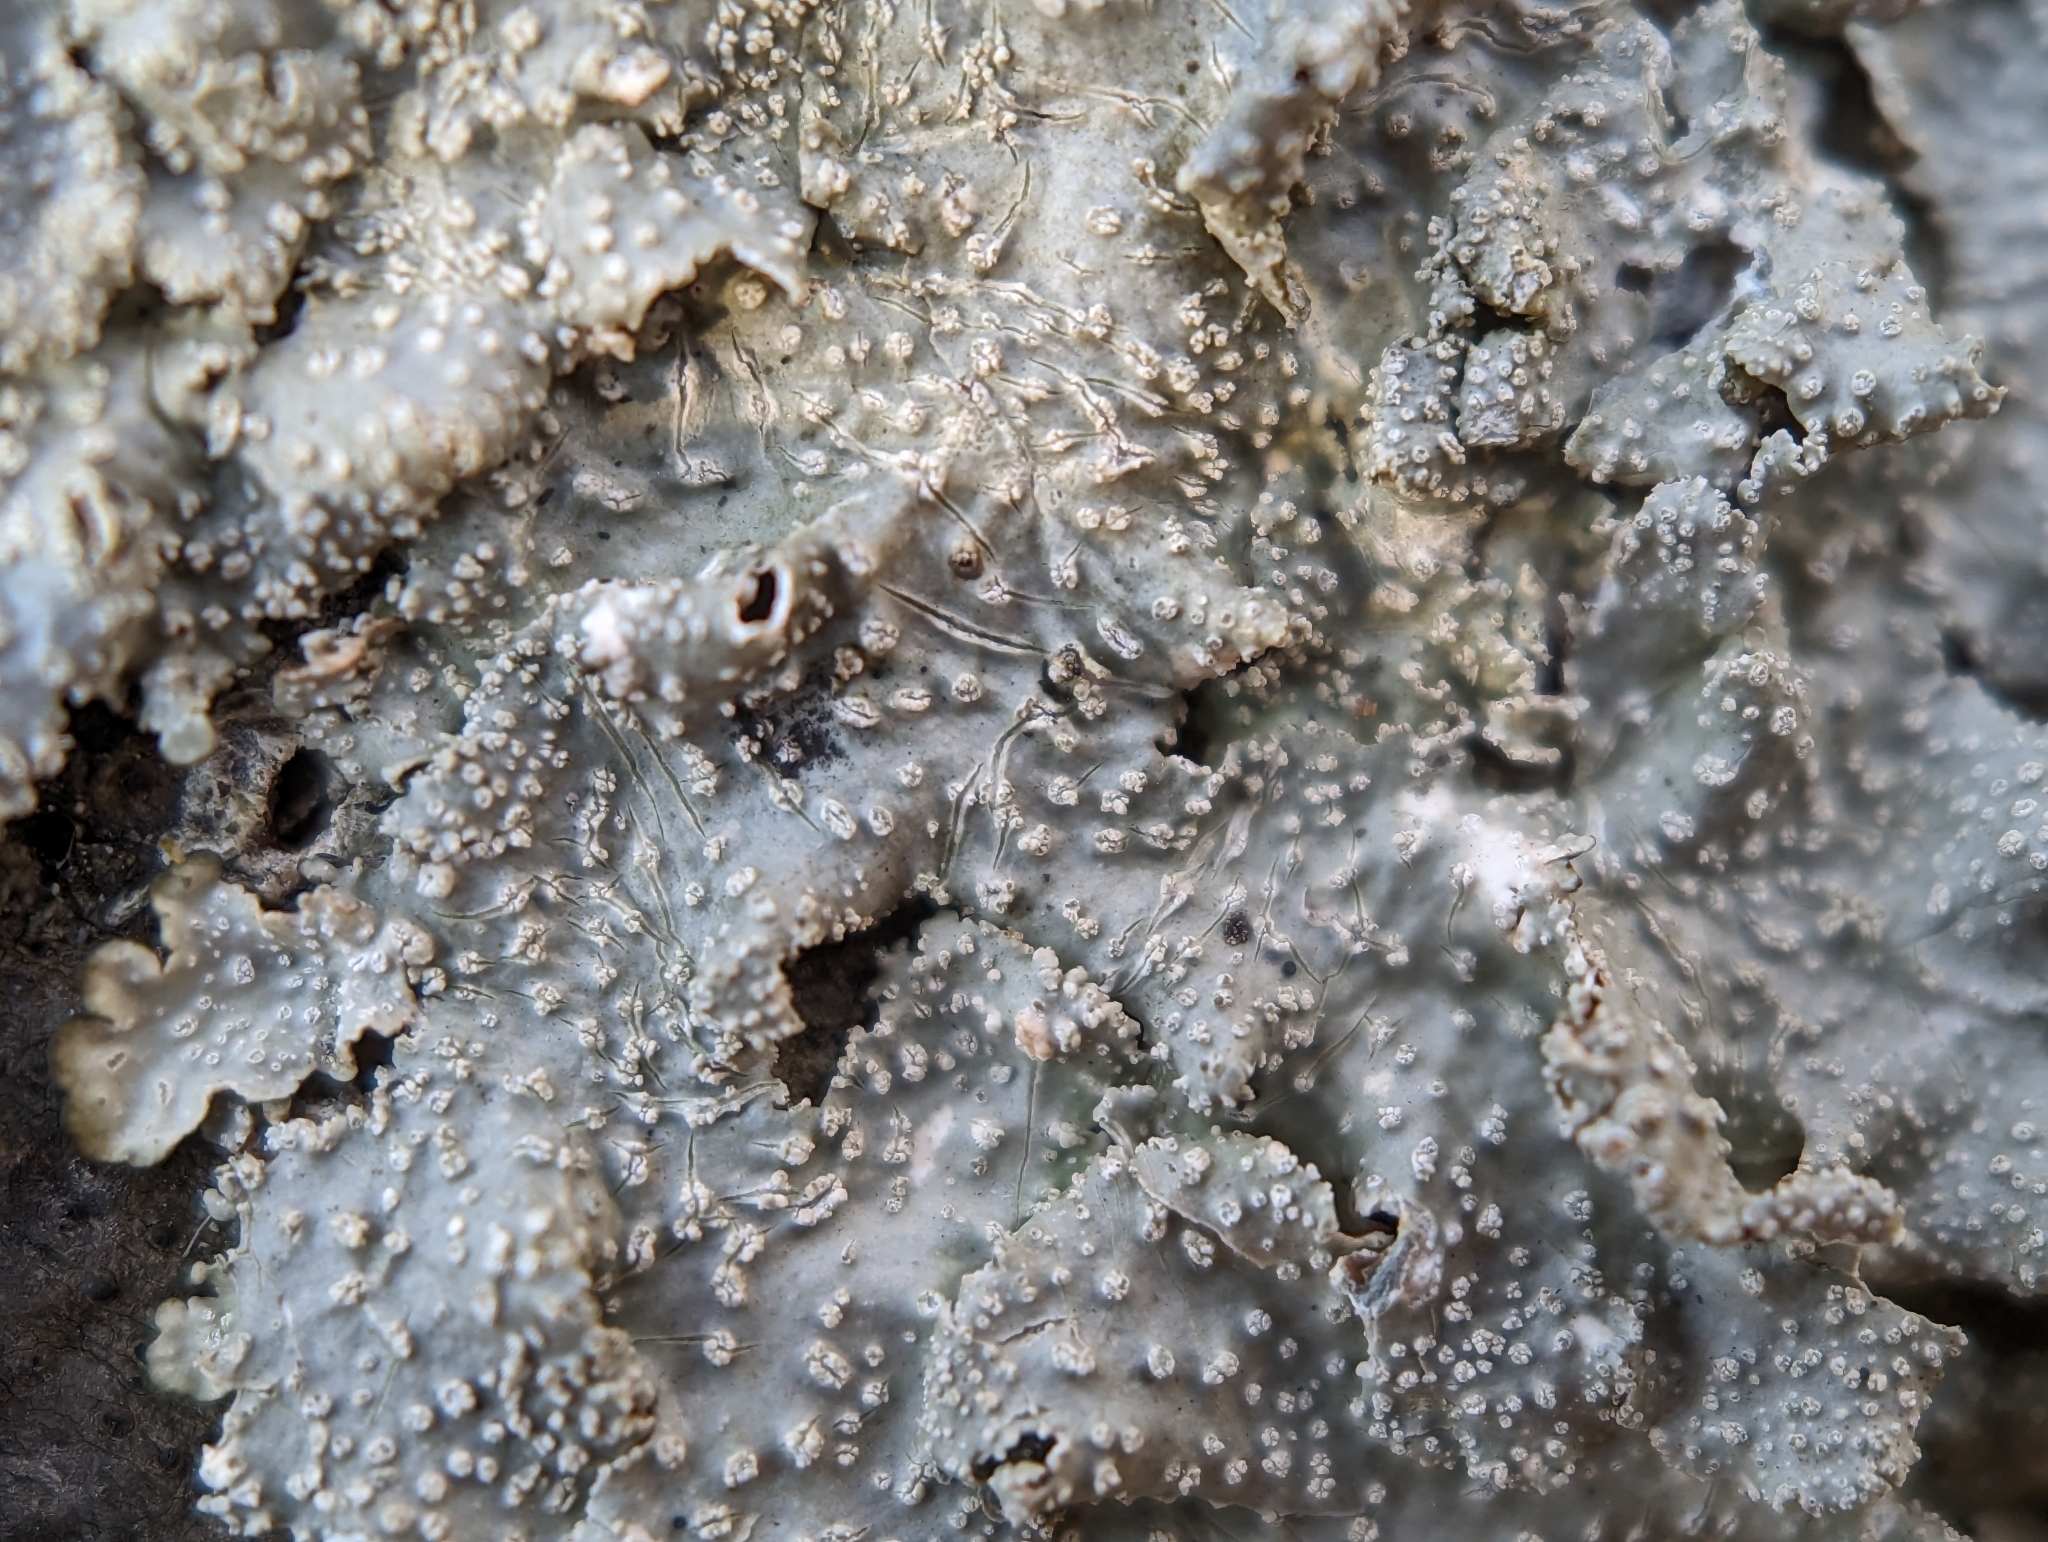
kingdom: Fungi
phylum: Ascomycota
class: Lecanoromycetes
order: Lecanorales
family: Parmeliaceae
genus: Punctelia
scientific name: Punctelia missouriensis
